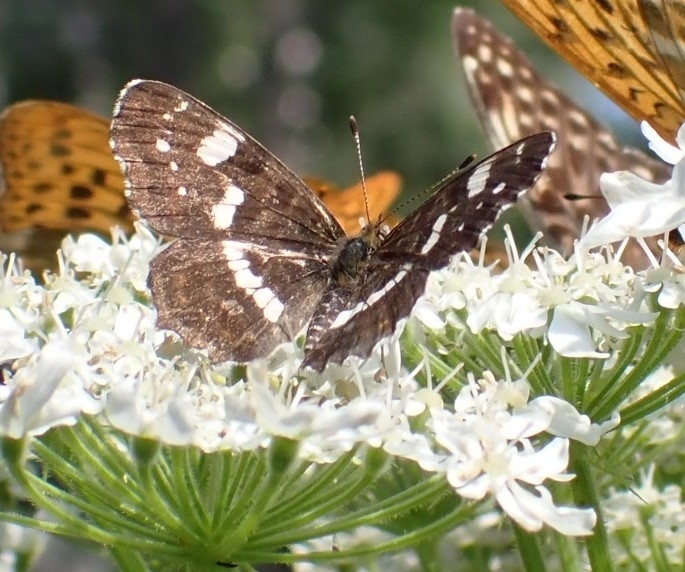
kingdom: Animalia
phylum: Arthropoda
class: Insecta
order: Lepidoptera
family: Nymphalidae
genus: Araschnia
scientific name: Araschnia levana
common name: Map butterfly
